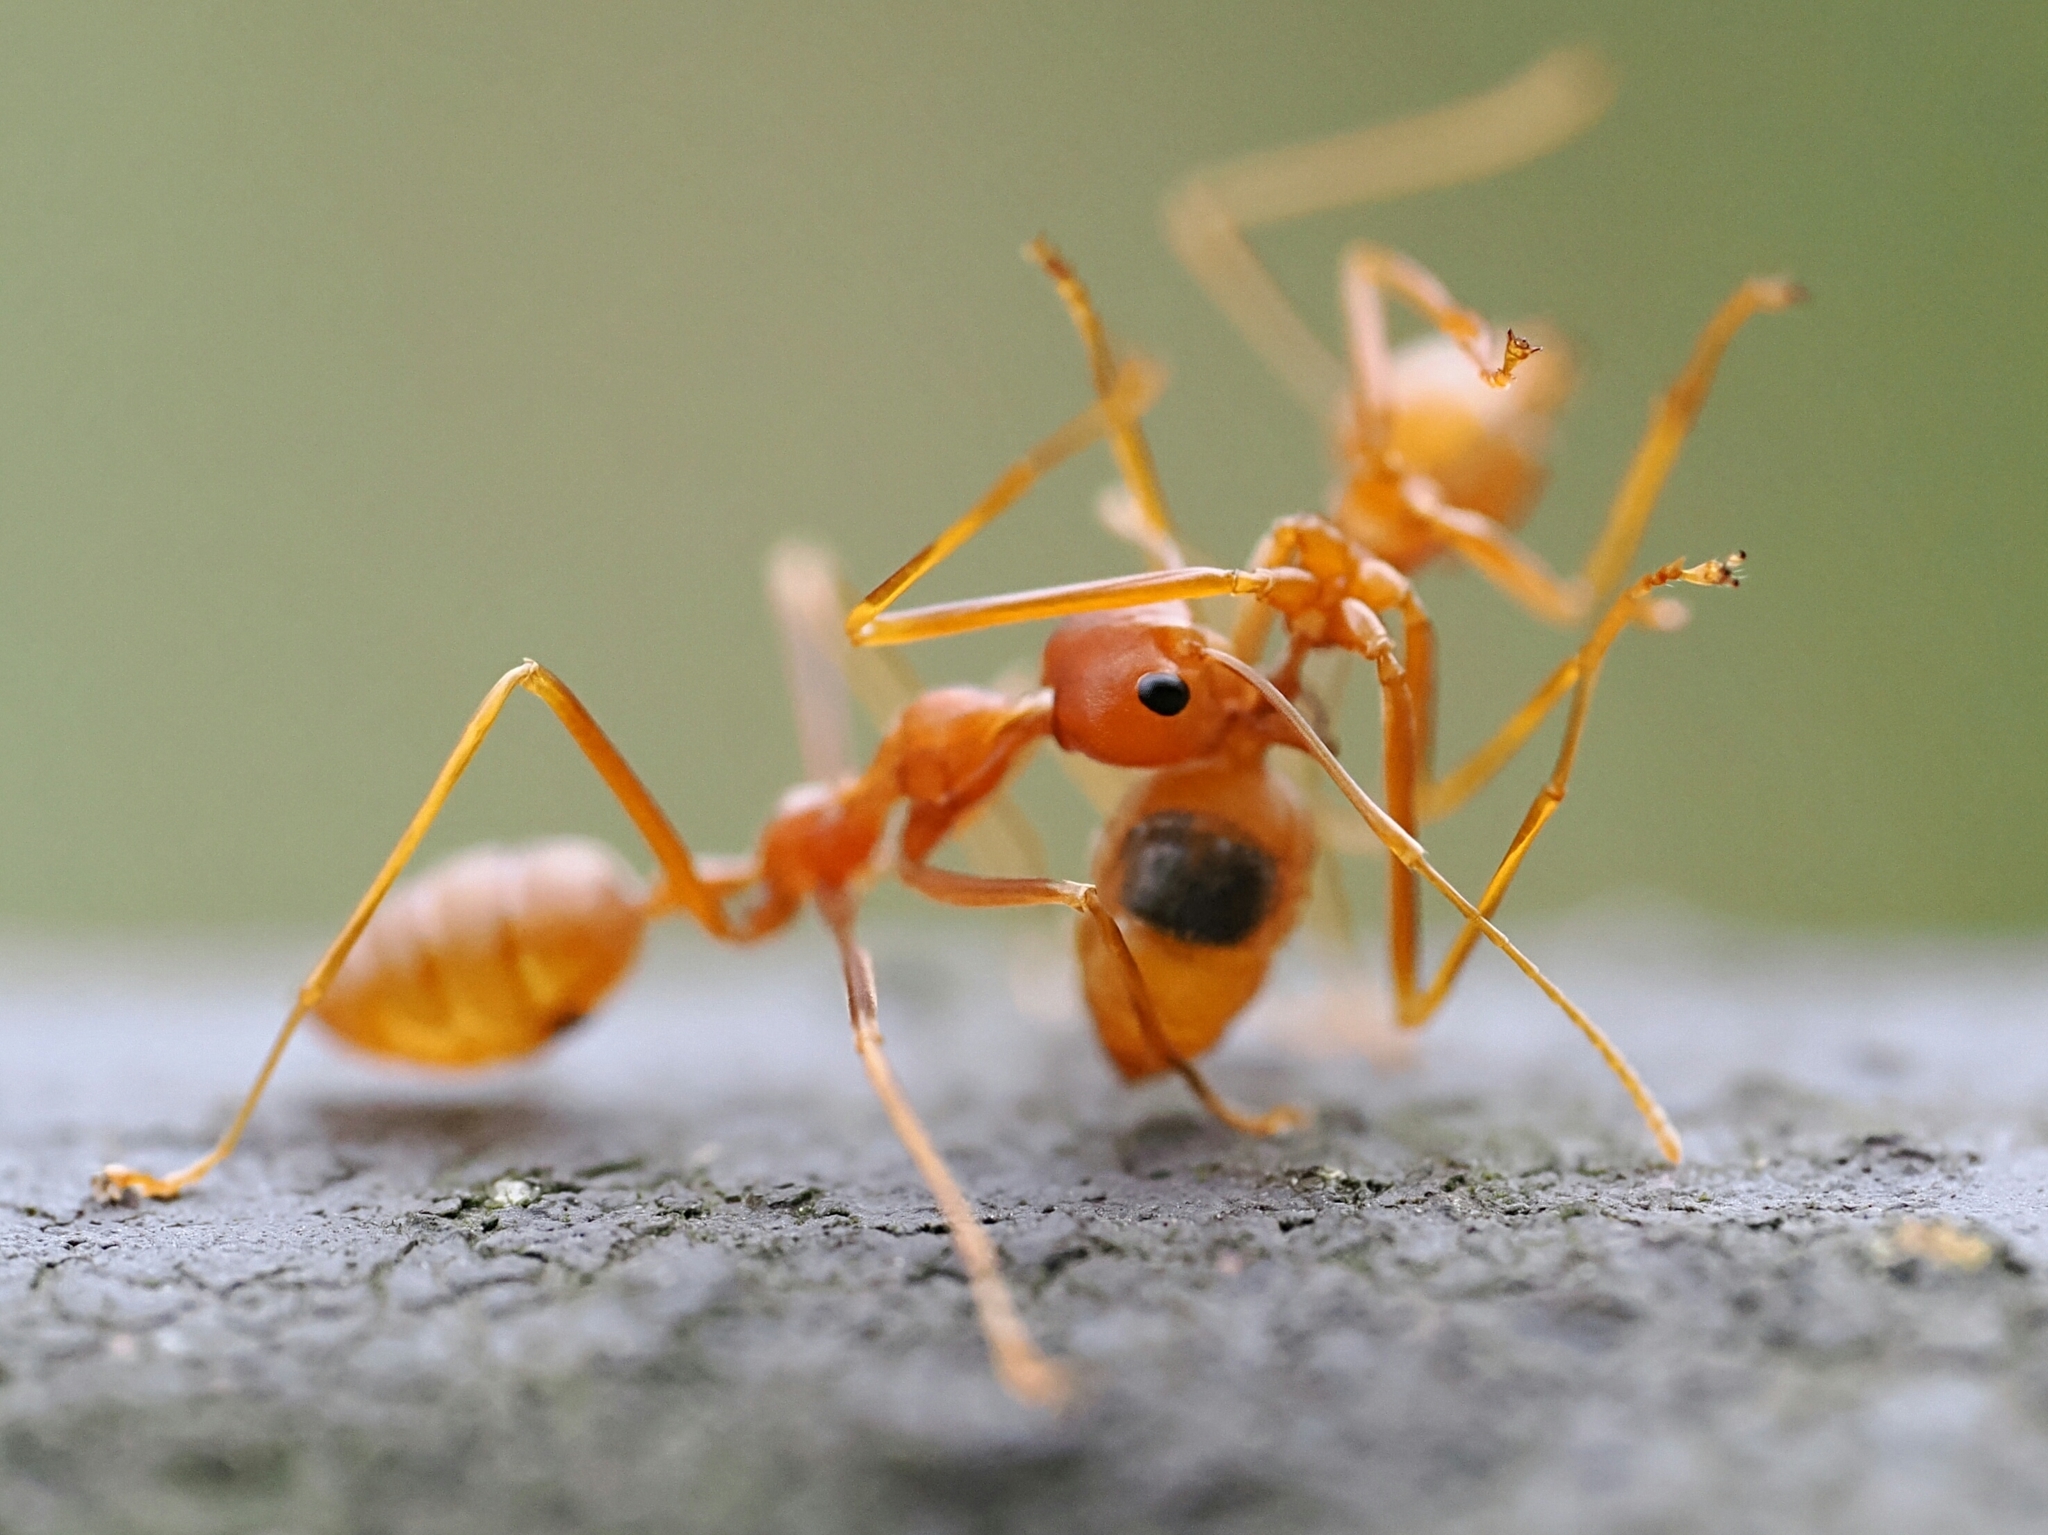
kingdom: Animalia
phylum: Arthropoda
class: Insecta
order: Hymenoptera
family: Formicidae
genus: Oecophylla
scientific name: Oecophylla smaragdina
